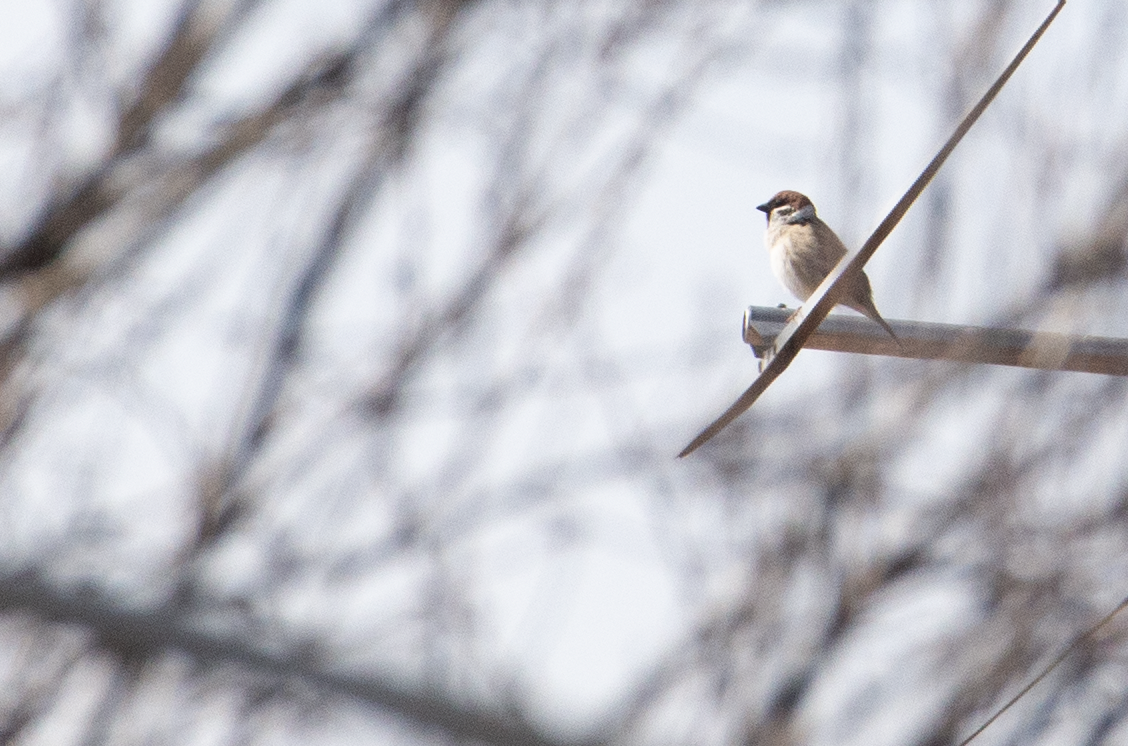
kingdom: Animalia
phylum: Chordata
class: Aves
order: Passeriformes
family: Passeridae
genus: Passer
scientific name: Passer montanus
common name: Eurasian tree sparrow
